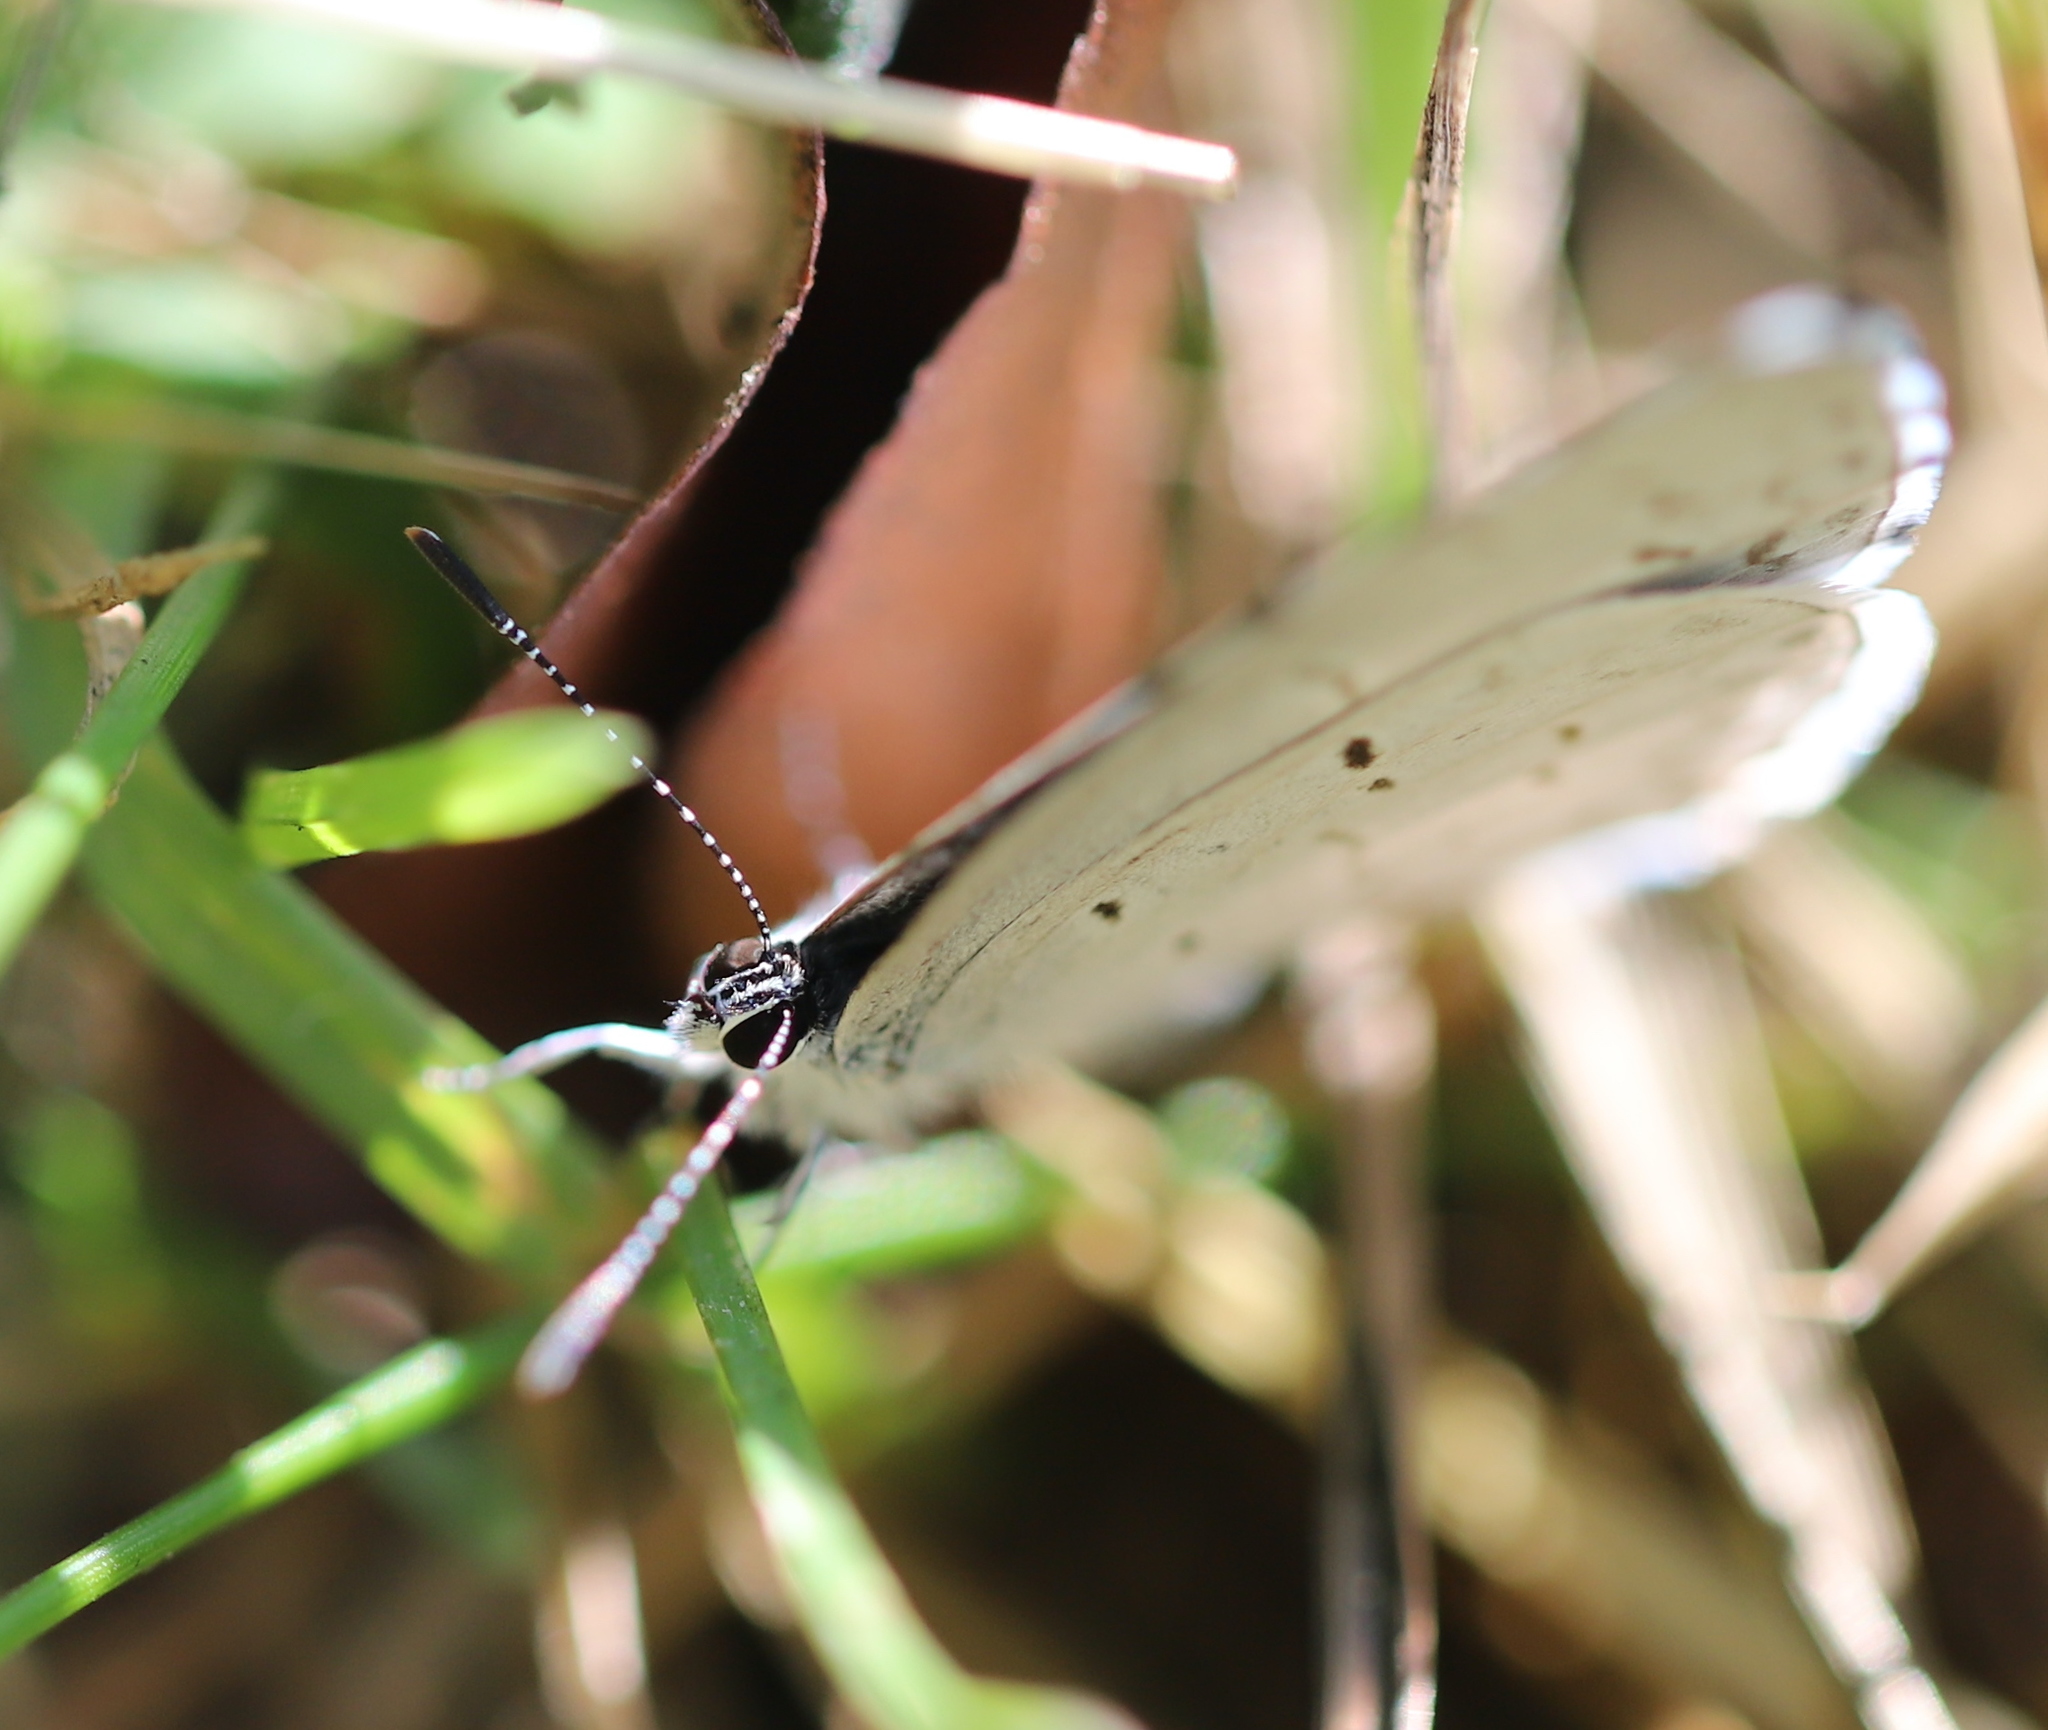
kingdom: Animalia
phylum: Arthropoda
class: Insecta
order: Lepidoptera
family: Lycaenidae
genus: Cyaniris
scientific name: Cyaniris neglecta
